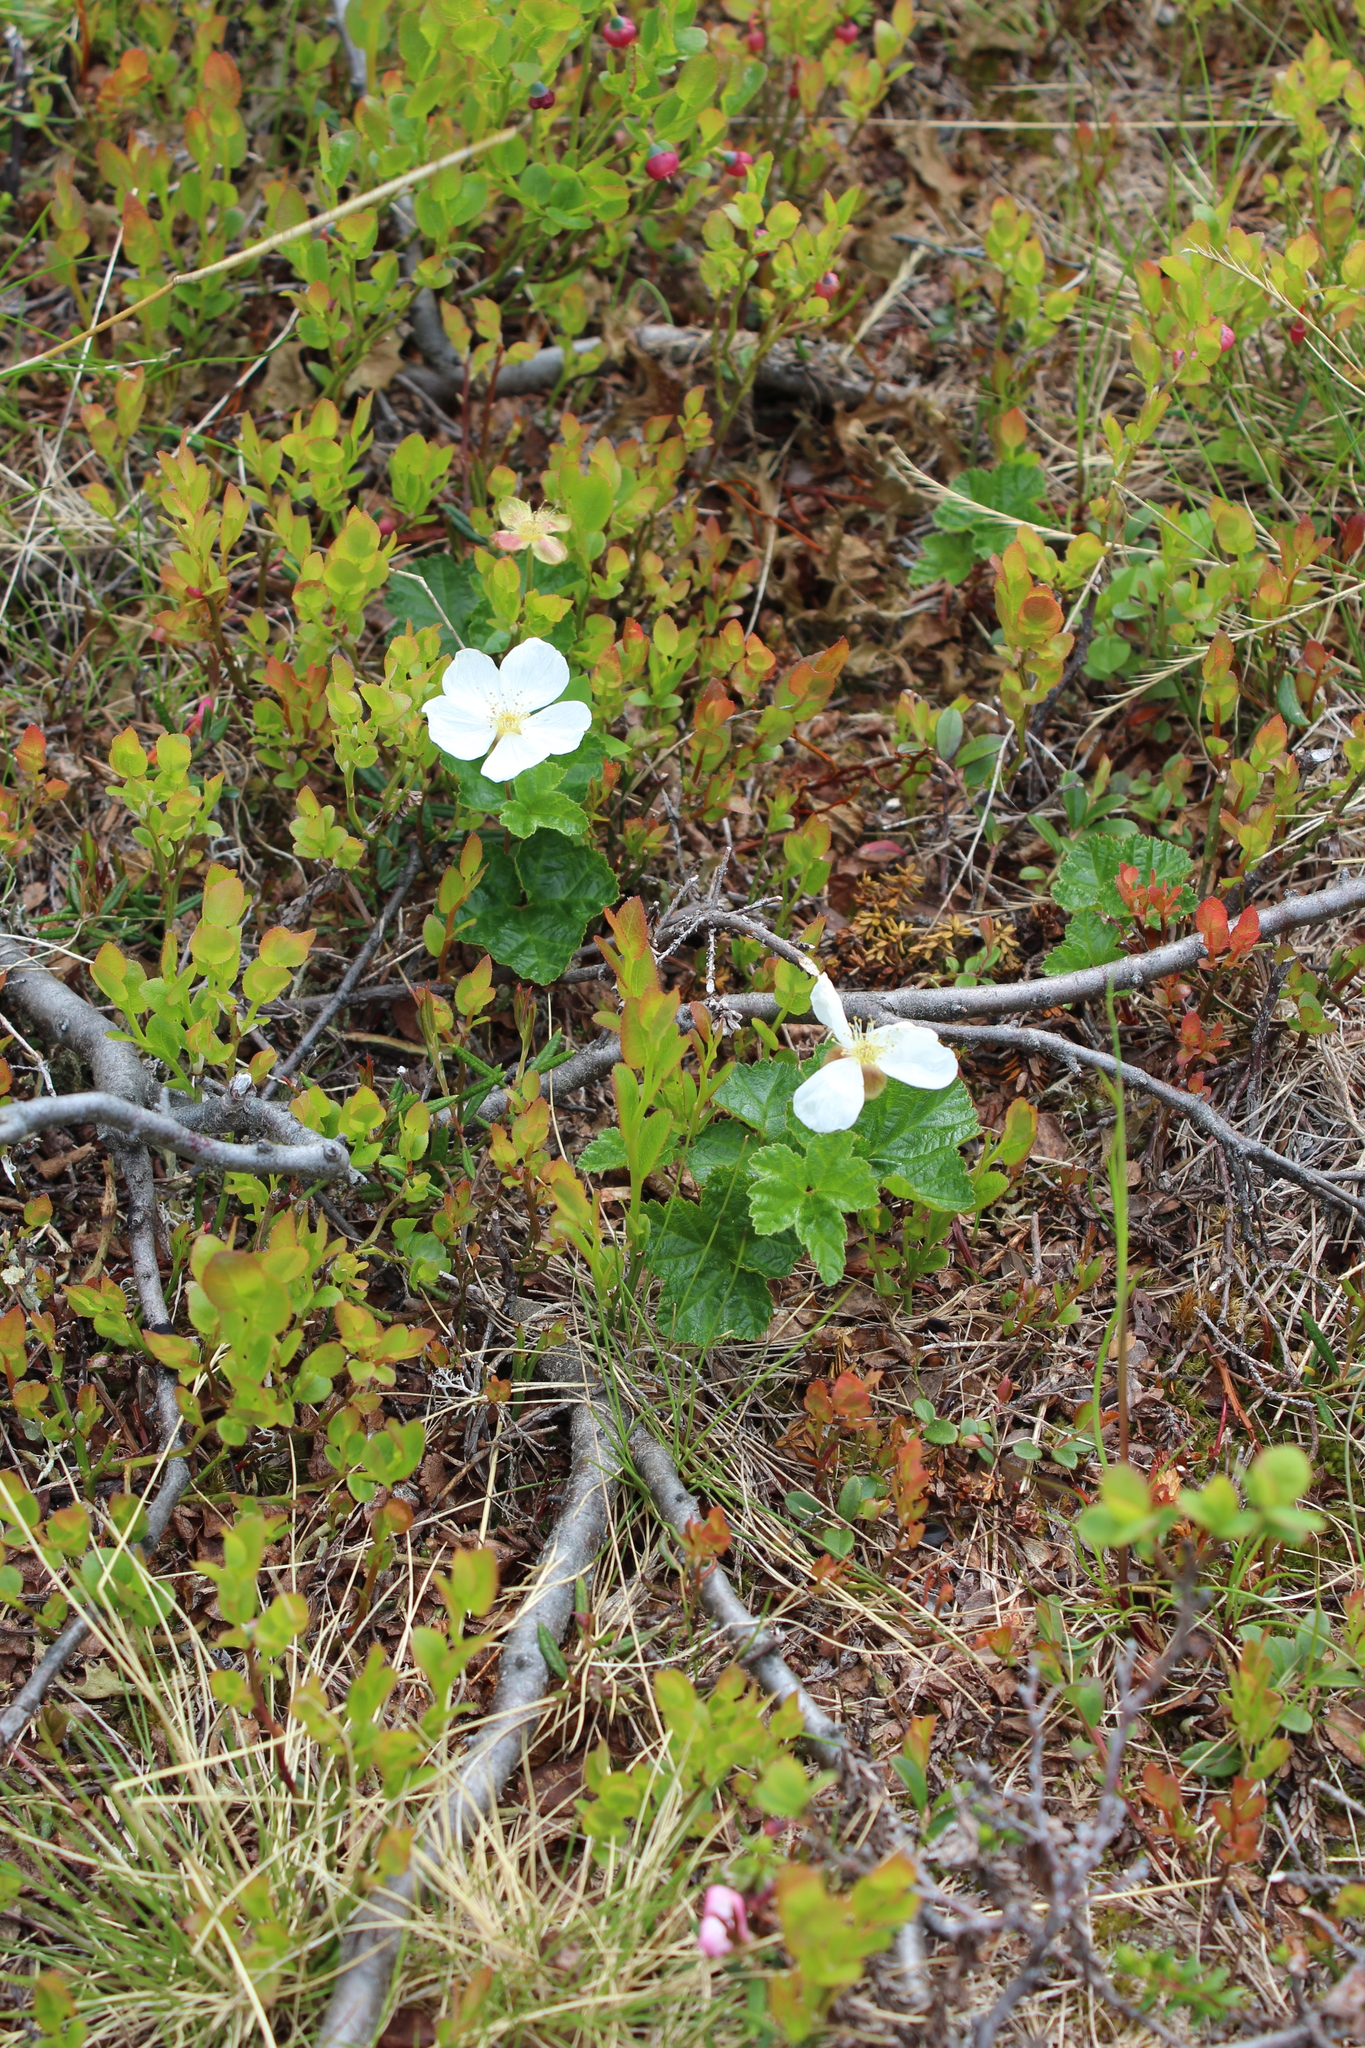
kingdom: Plantae
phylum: Tracheophyta
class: Magnoliopsida
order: Rosales
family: Rosaceae
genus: Rubus
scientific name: Rubus chamaemorus
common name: Cloudberry
